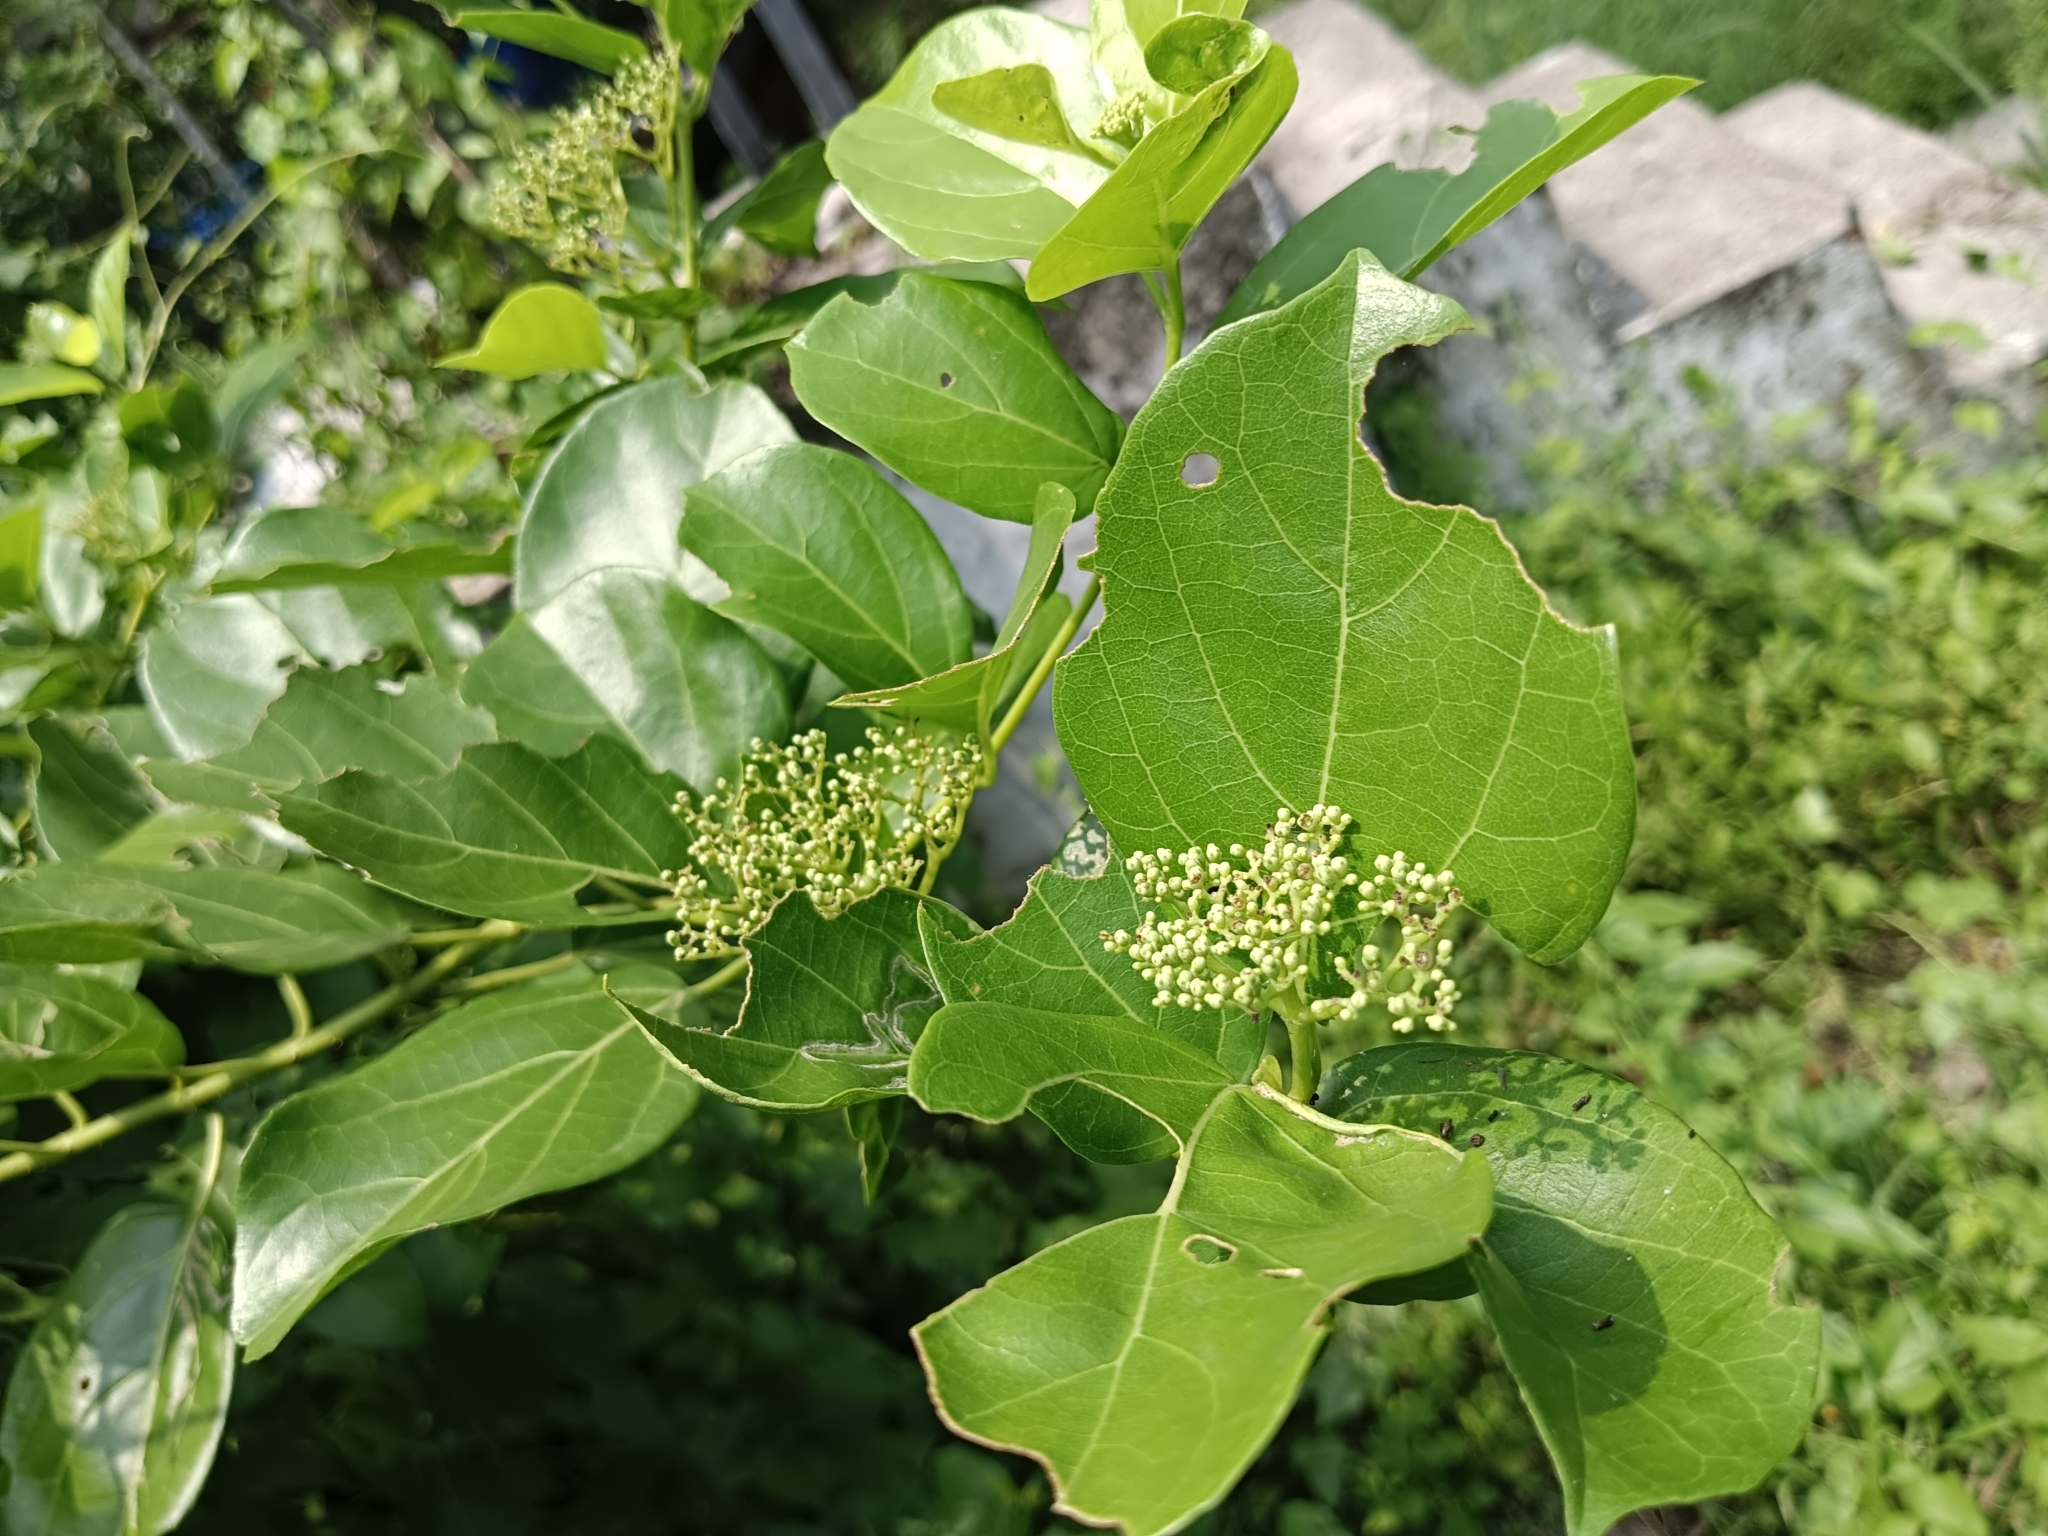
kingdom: Plantae
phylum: Tracheophyta
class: Magnoliopsida
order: Lamiales
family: Lamiaceae
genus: Premna
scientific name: Premna serratifolia
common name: Bastard guelder
